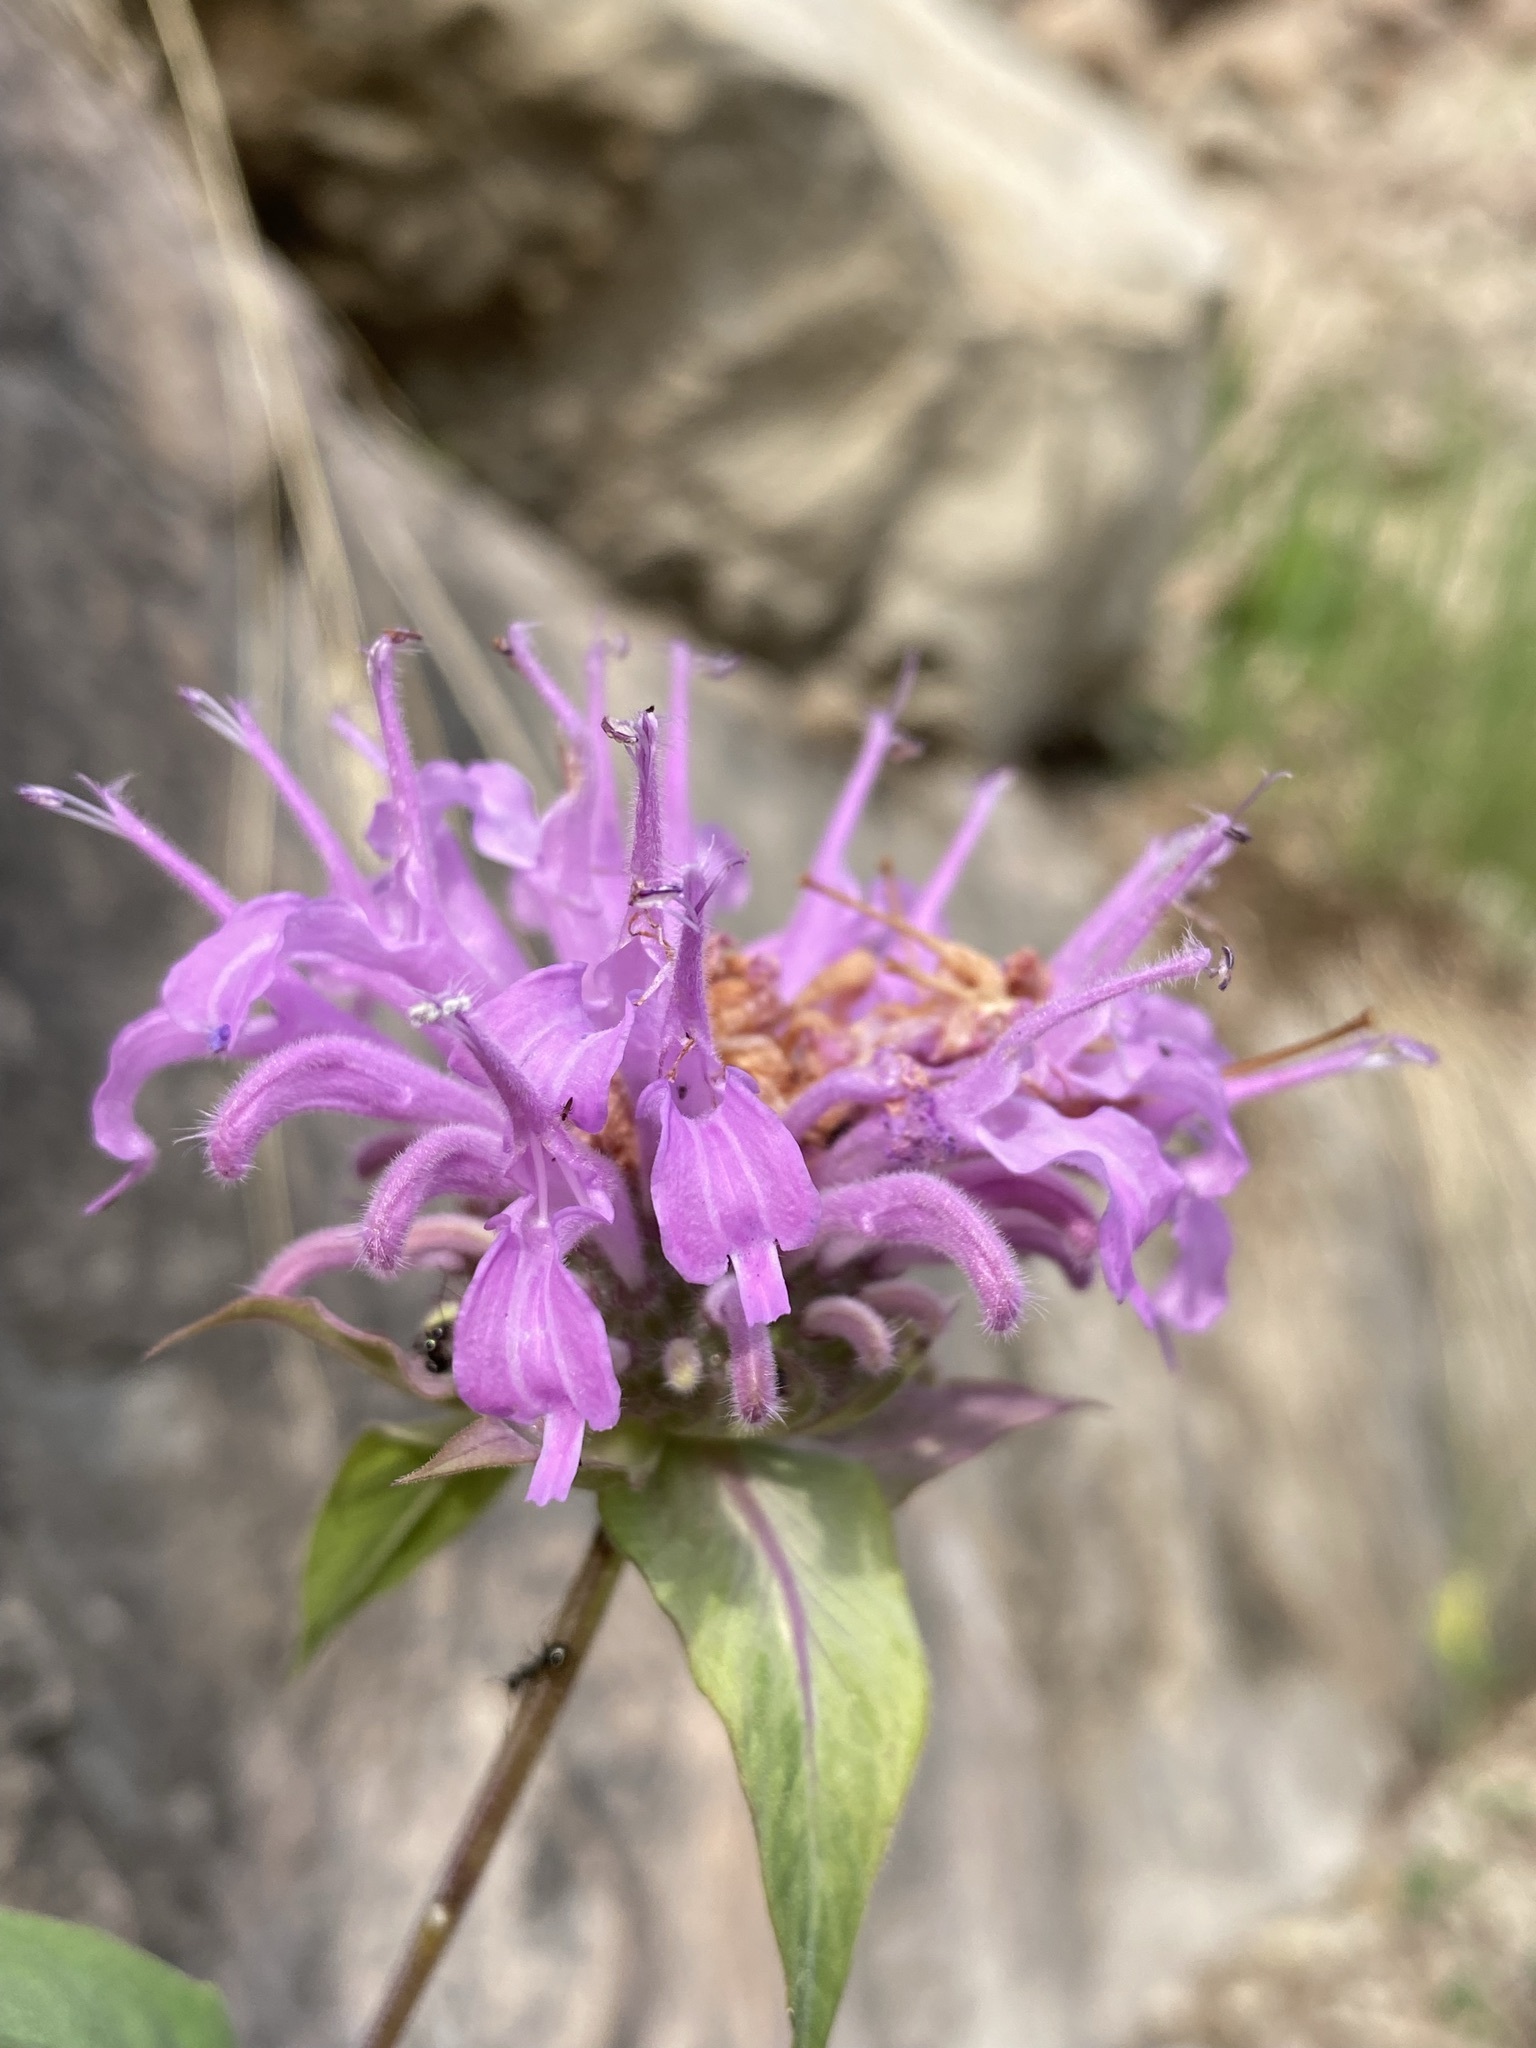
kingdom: Plantae
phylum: Tracheophyta
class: Magnoliopsida
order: Lamiales
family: Lamiaceae
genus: Monarda
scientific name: Monarda fistulosa
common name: Purple beebalm
